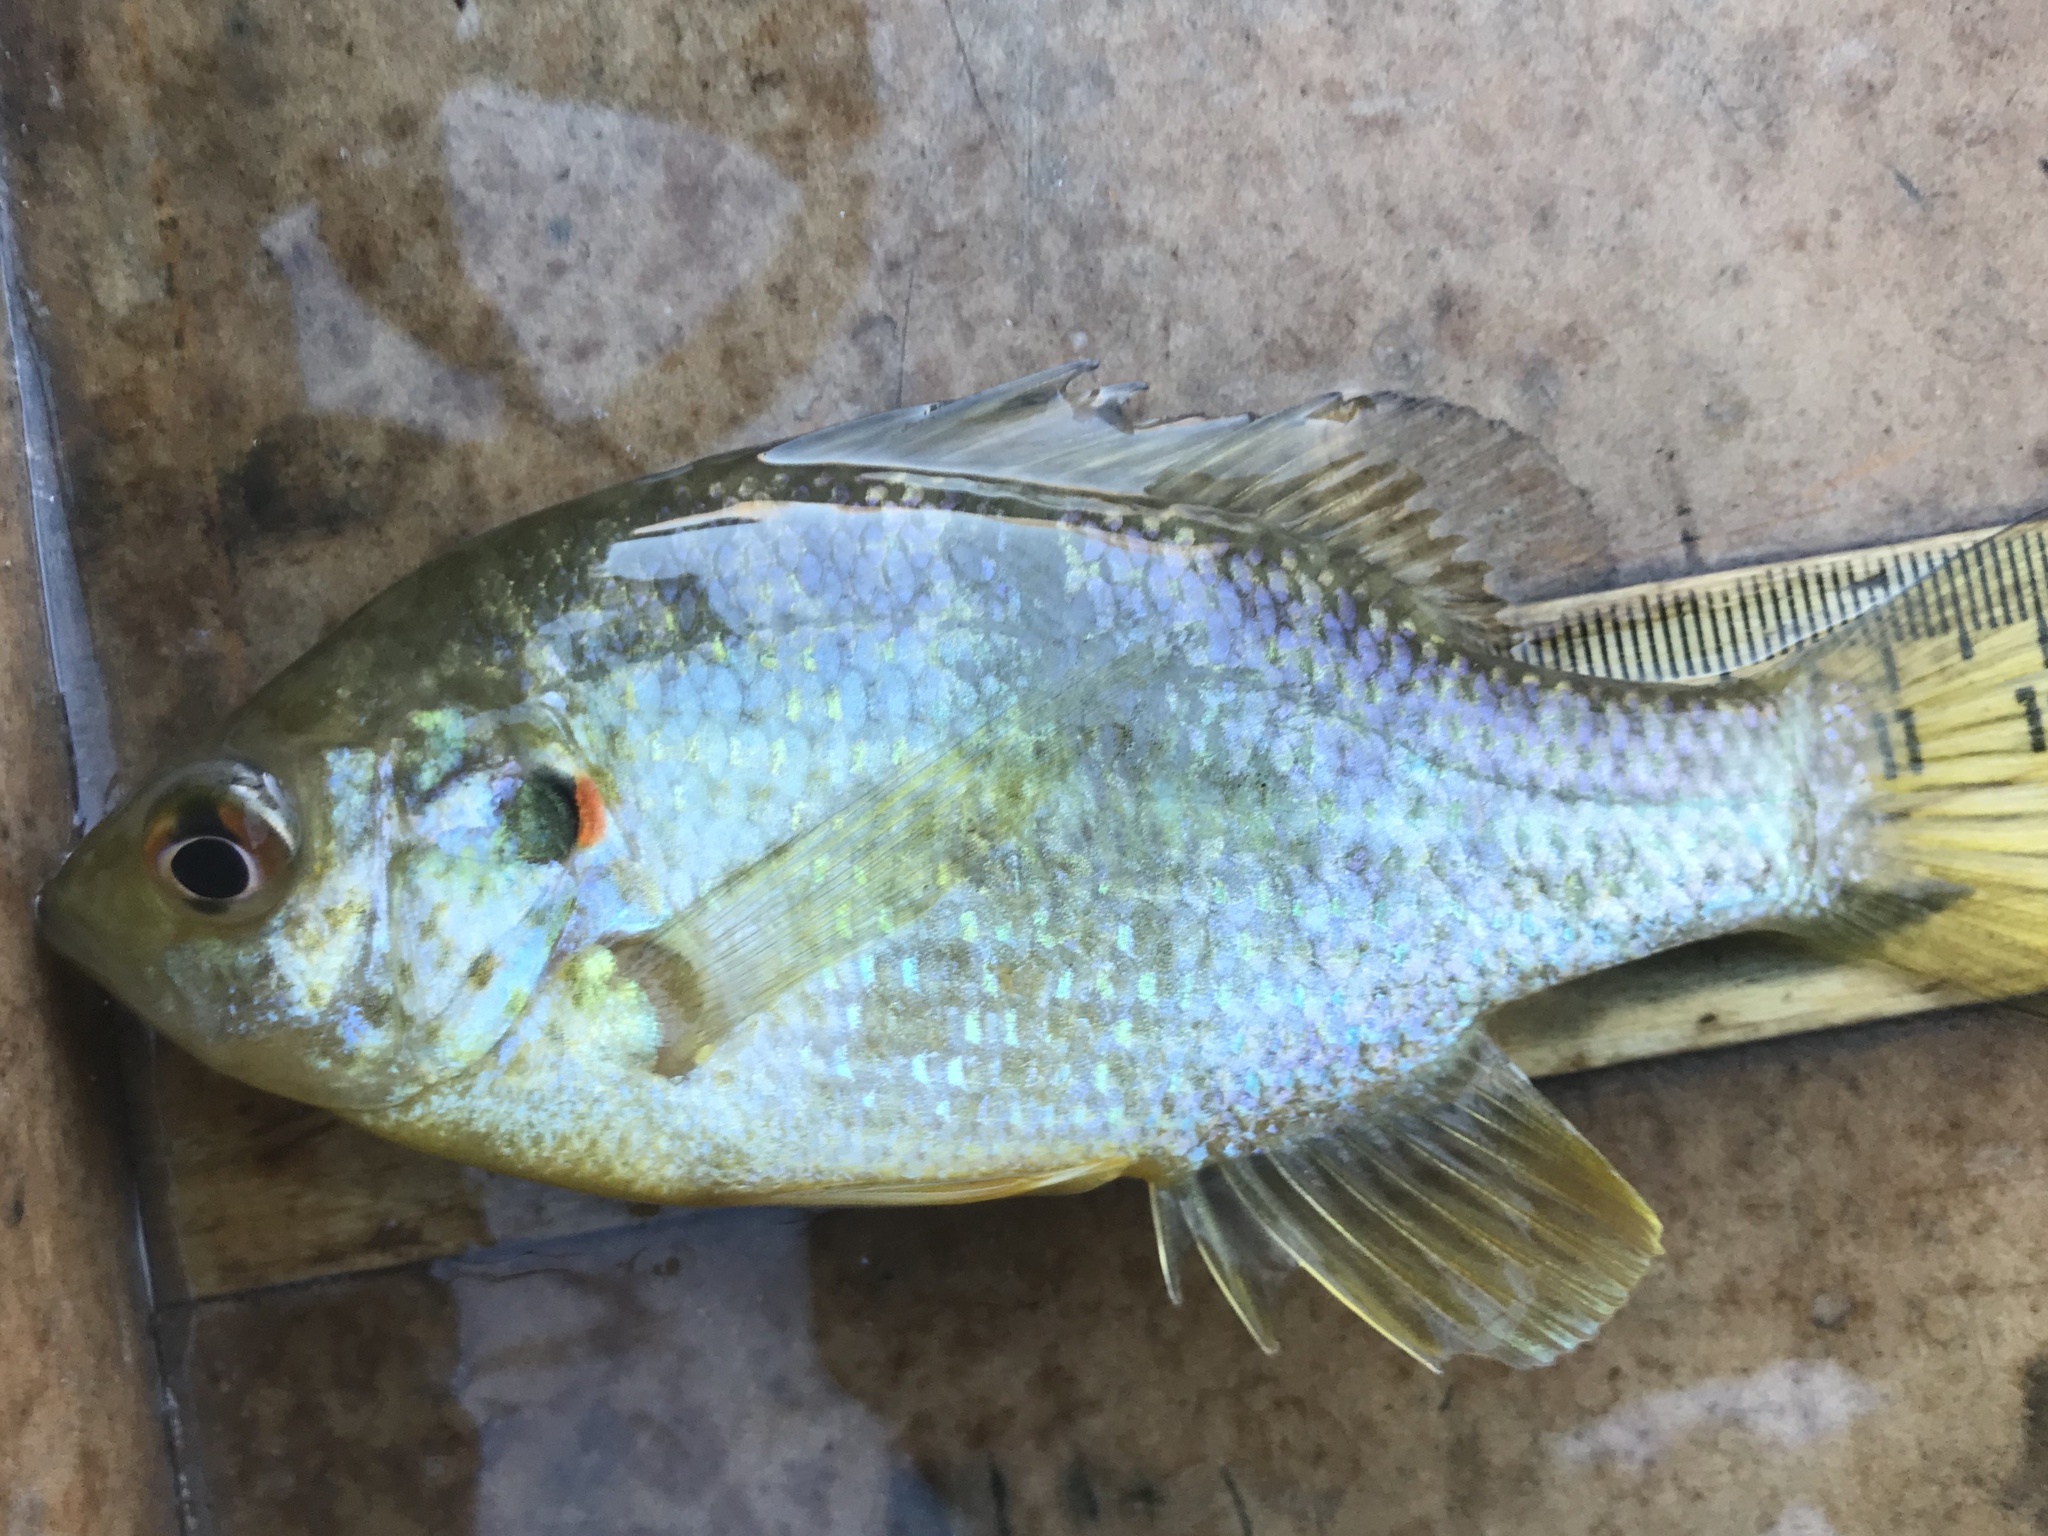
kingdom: Animalia
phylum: Chordata
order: Perciformes
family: Centrarchidae
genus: Lepomis
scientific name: Lepomis microlophus
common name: Redear sunfish
